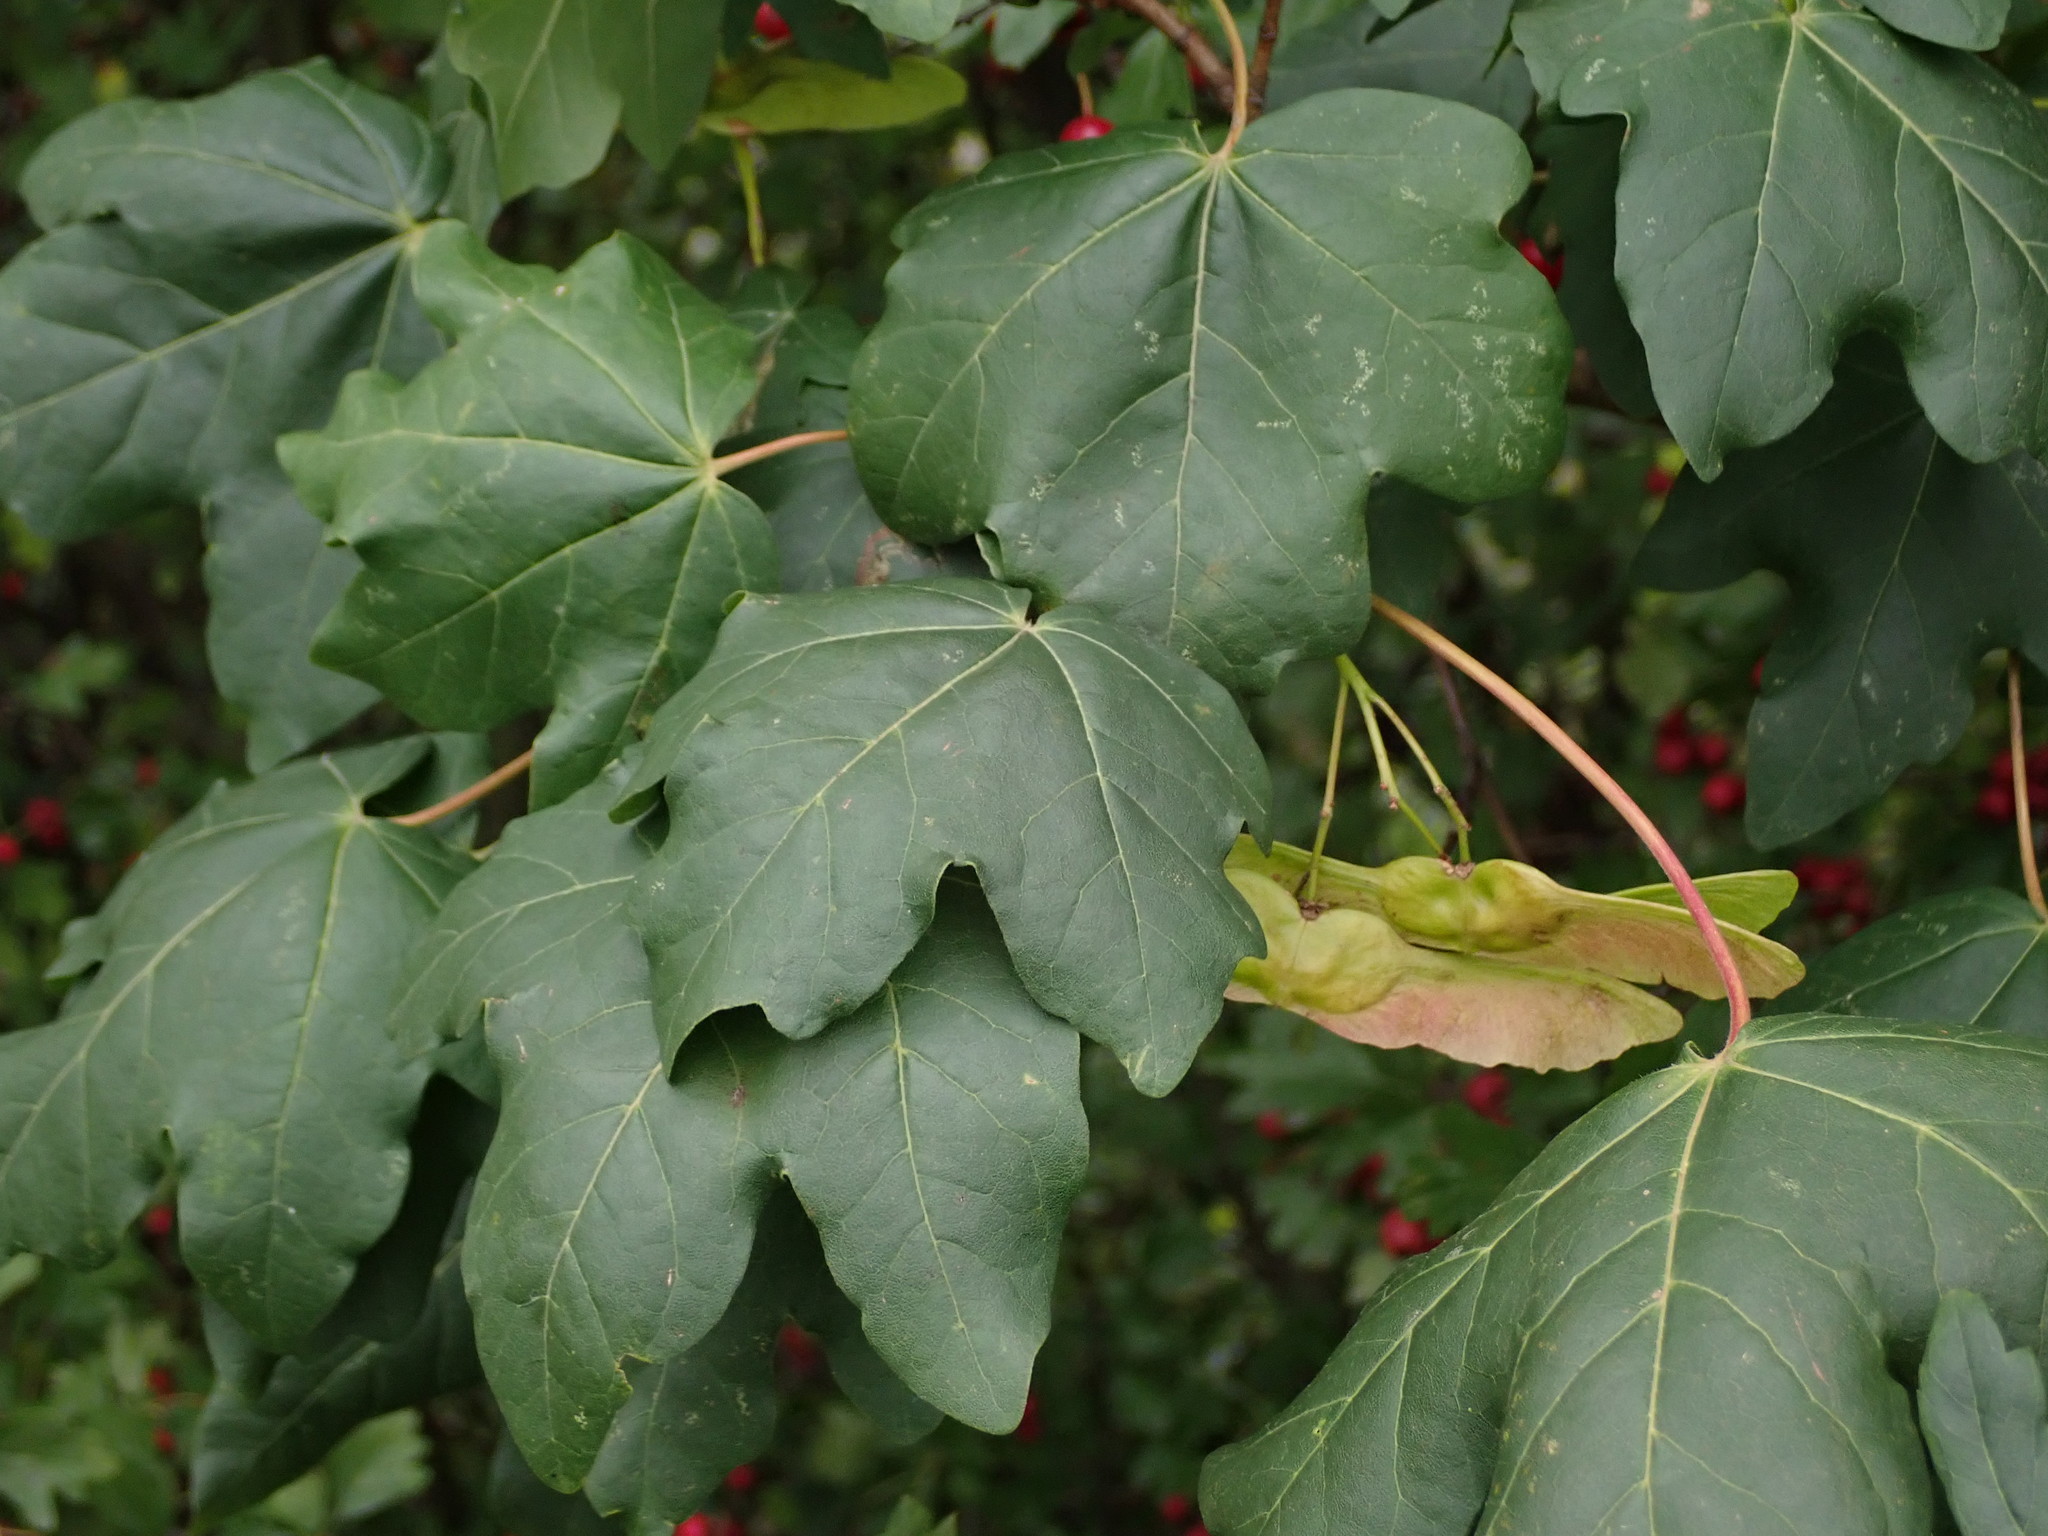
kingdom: Plantae
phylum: Tracheophyta
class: Magnoliopsida
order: Sapindales
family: Sapindaceae
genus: Acer
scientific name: Acer campestre
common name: Field maple
